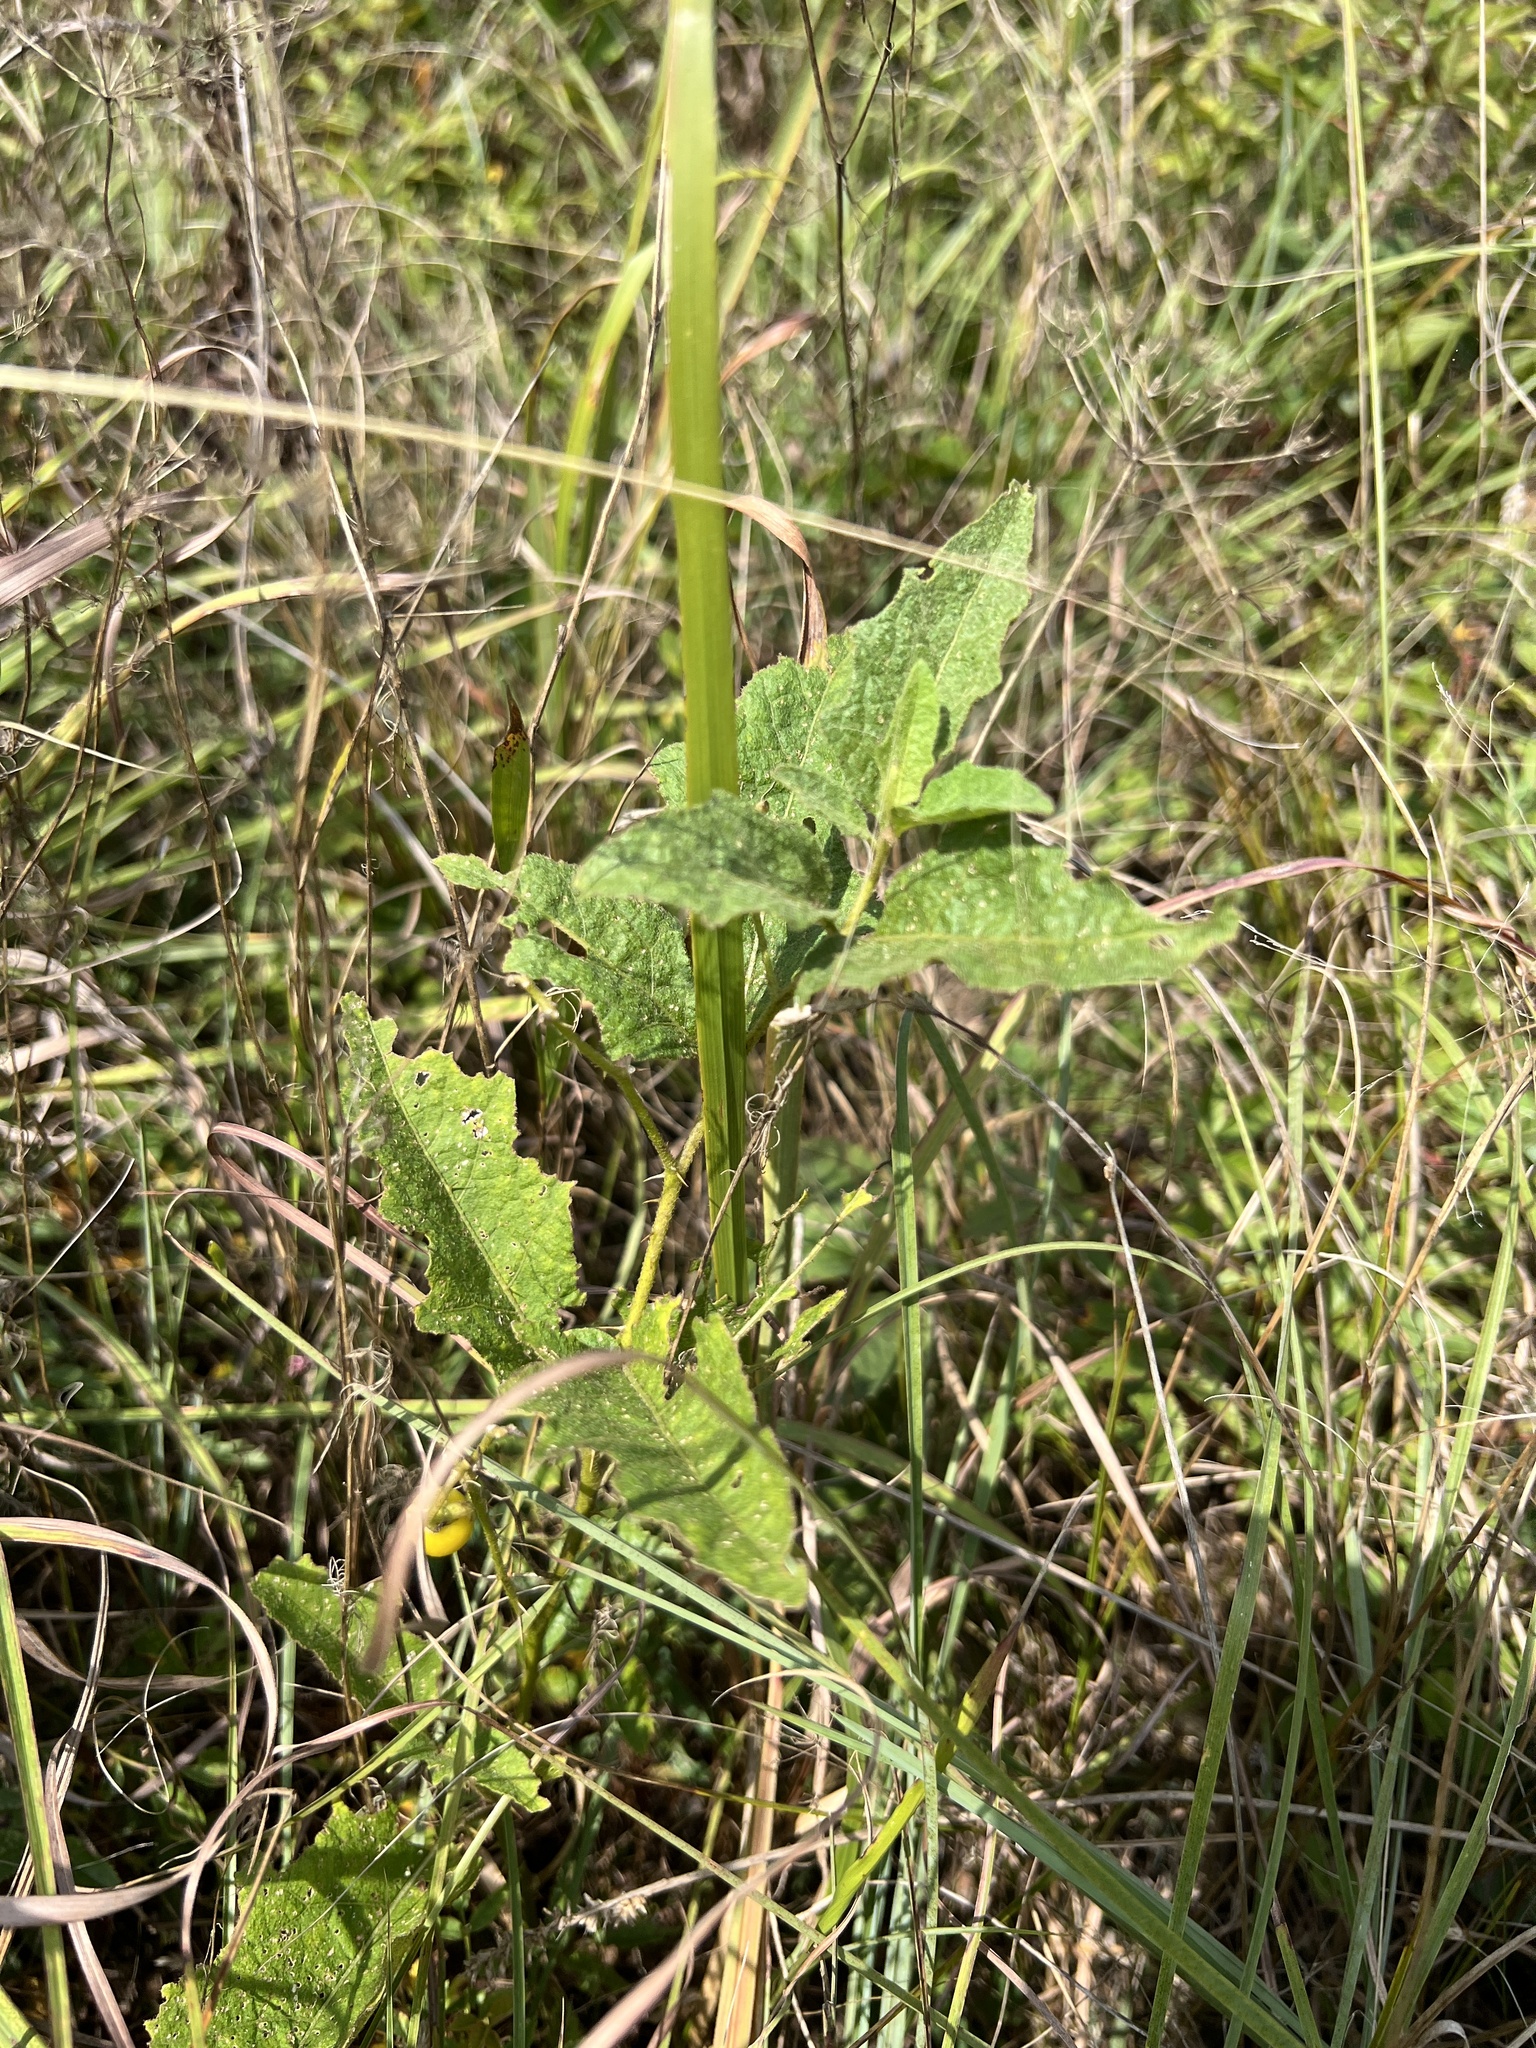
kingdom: Plantae
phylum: Tracheophyta
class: Magnoliopsida
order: Solanales
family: Solanaceae
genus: Solanum
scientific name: Solanum carolinense
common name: Horse-nettle
